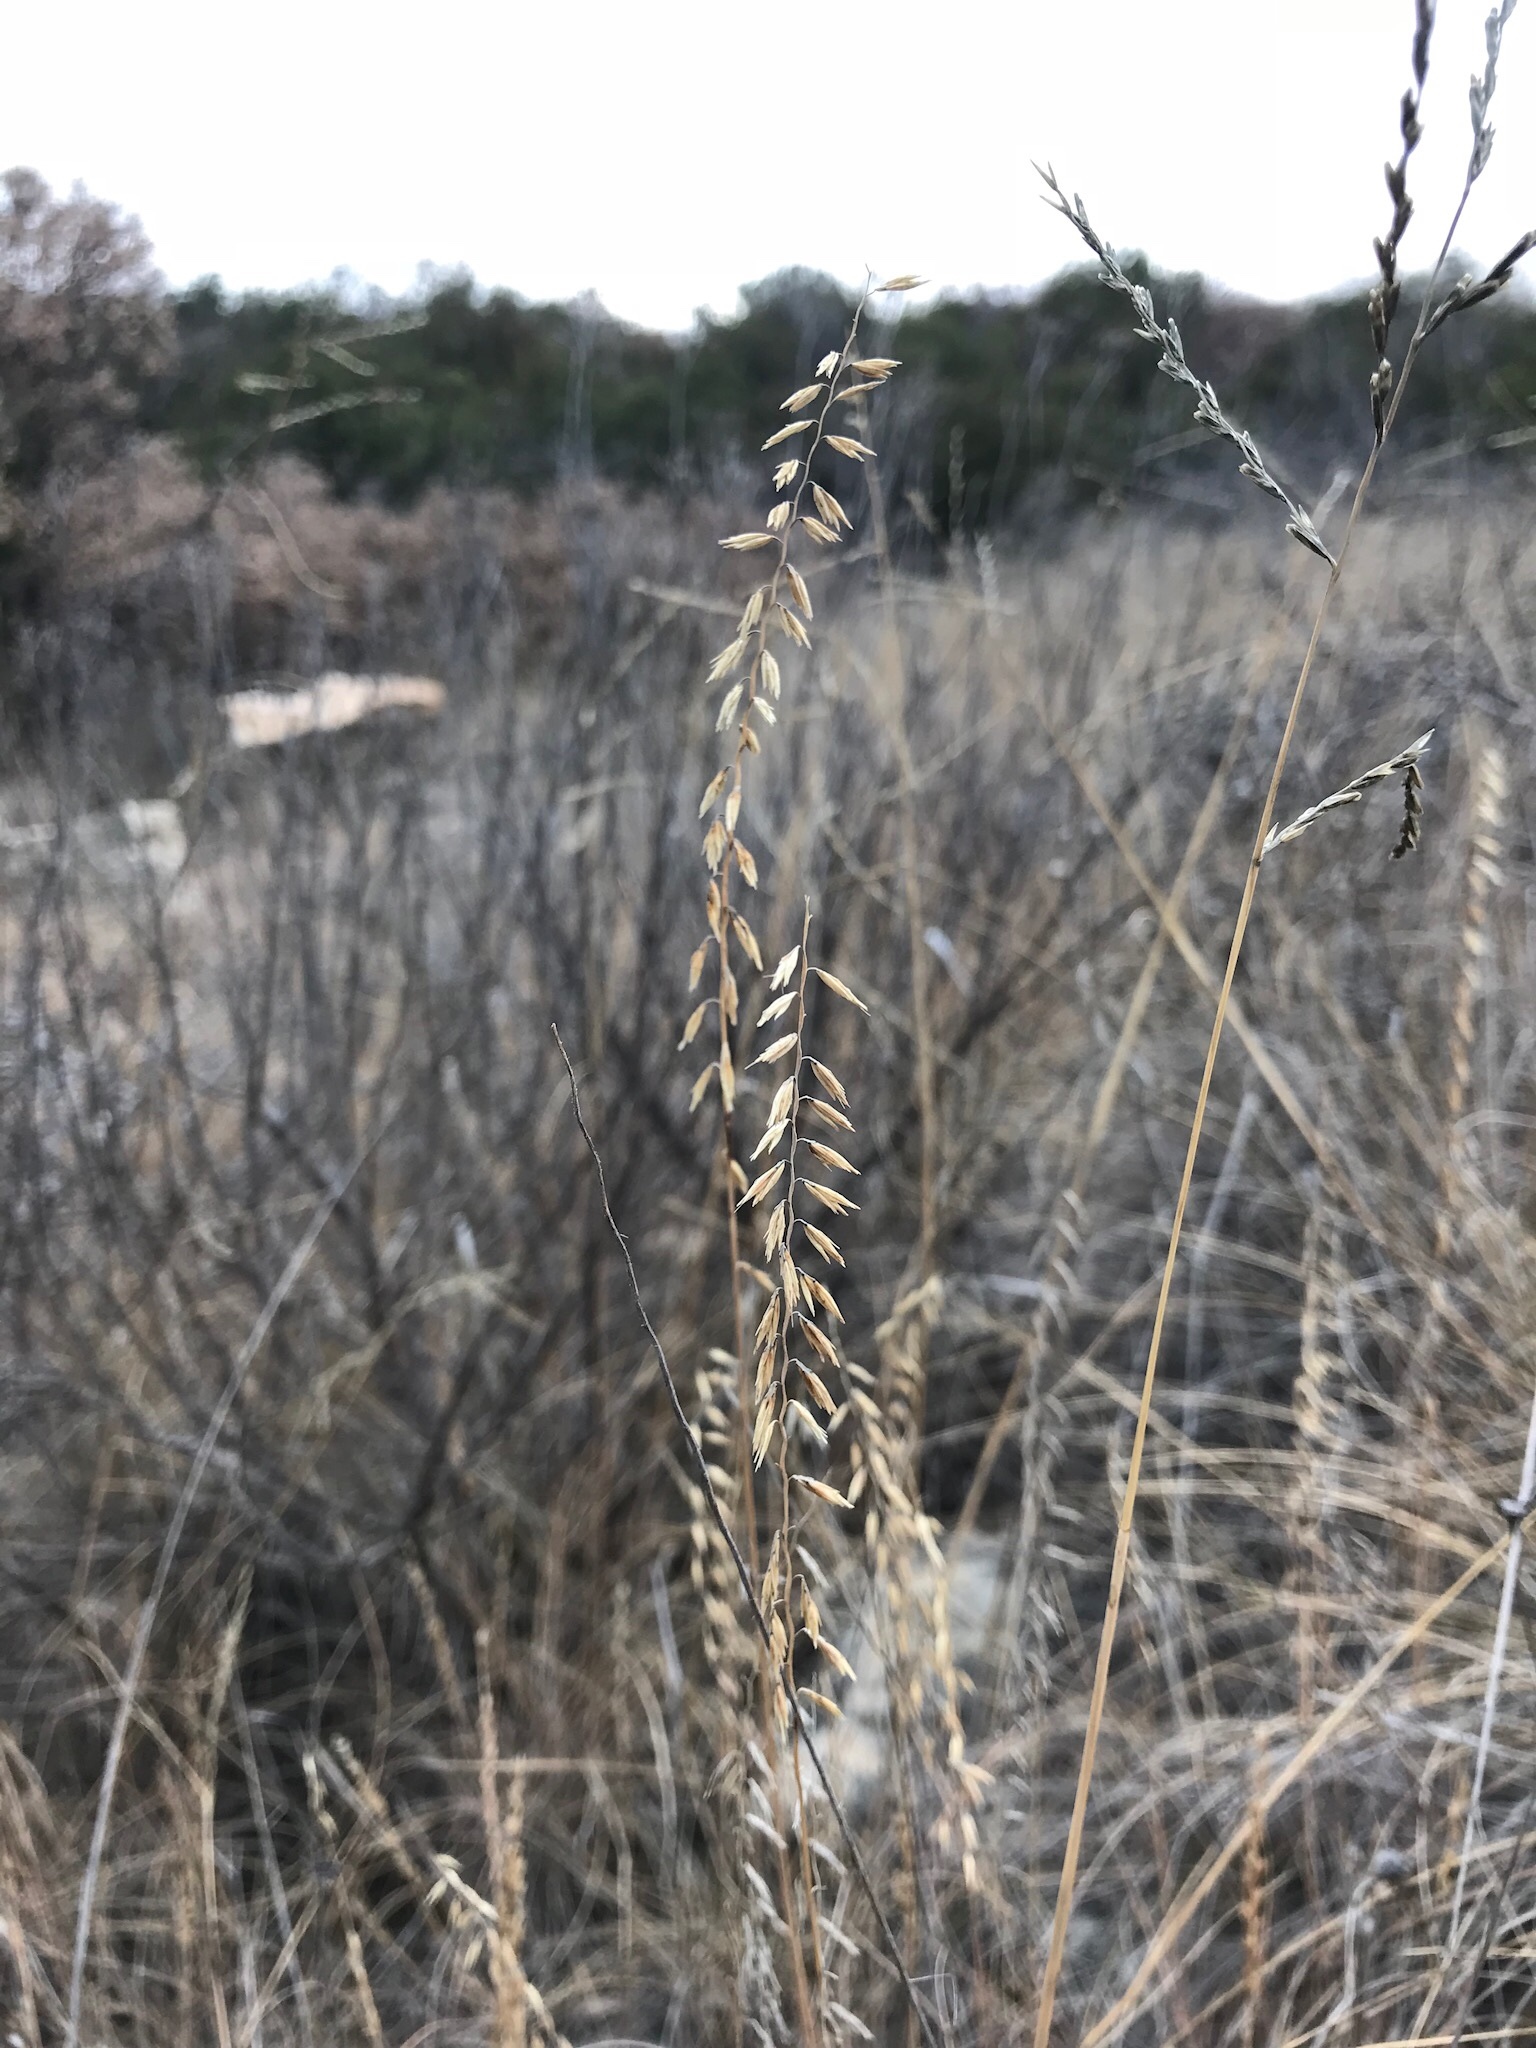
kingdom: Plantae
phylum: Tracheophyta
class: Liliopsida
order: Poales
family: Poaceae
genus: Bouteloua
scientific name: Bouteloua curtipendula
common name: Side-oats grama
